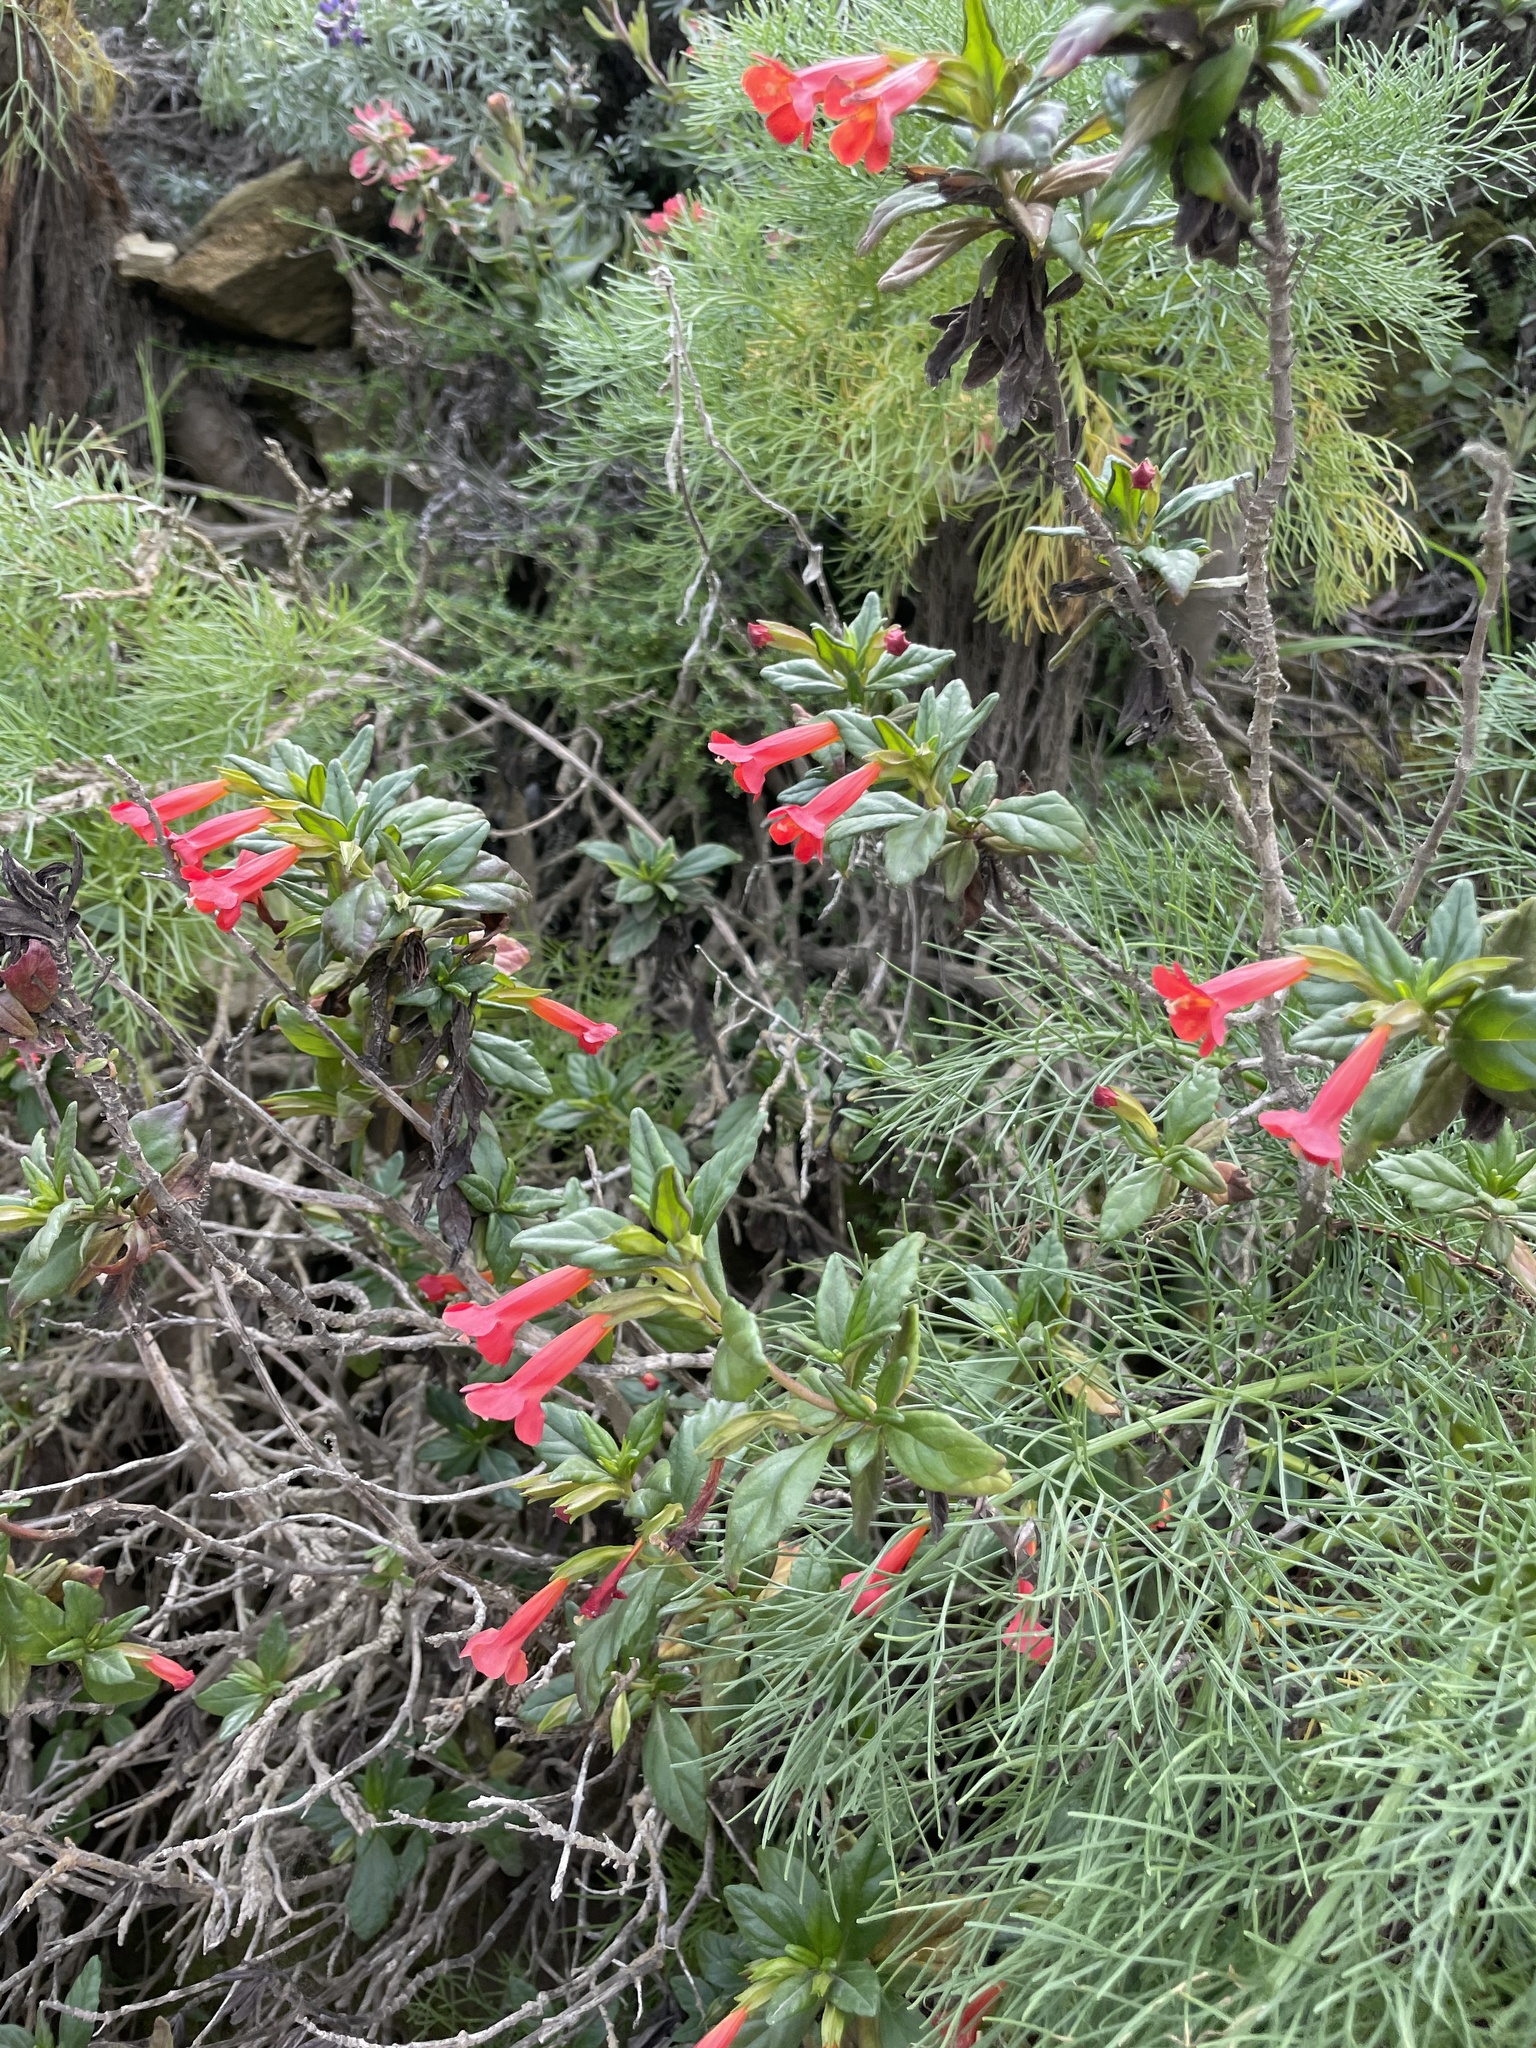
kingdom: Plantae
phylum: Tracheophyta
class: Magnoliopsida
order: Lamiales
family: Phrymaceae
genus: Diplacus
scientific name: Diplacus parviflorus
